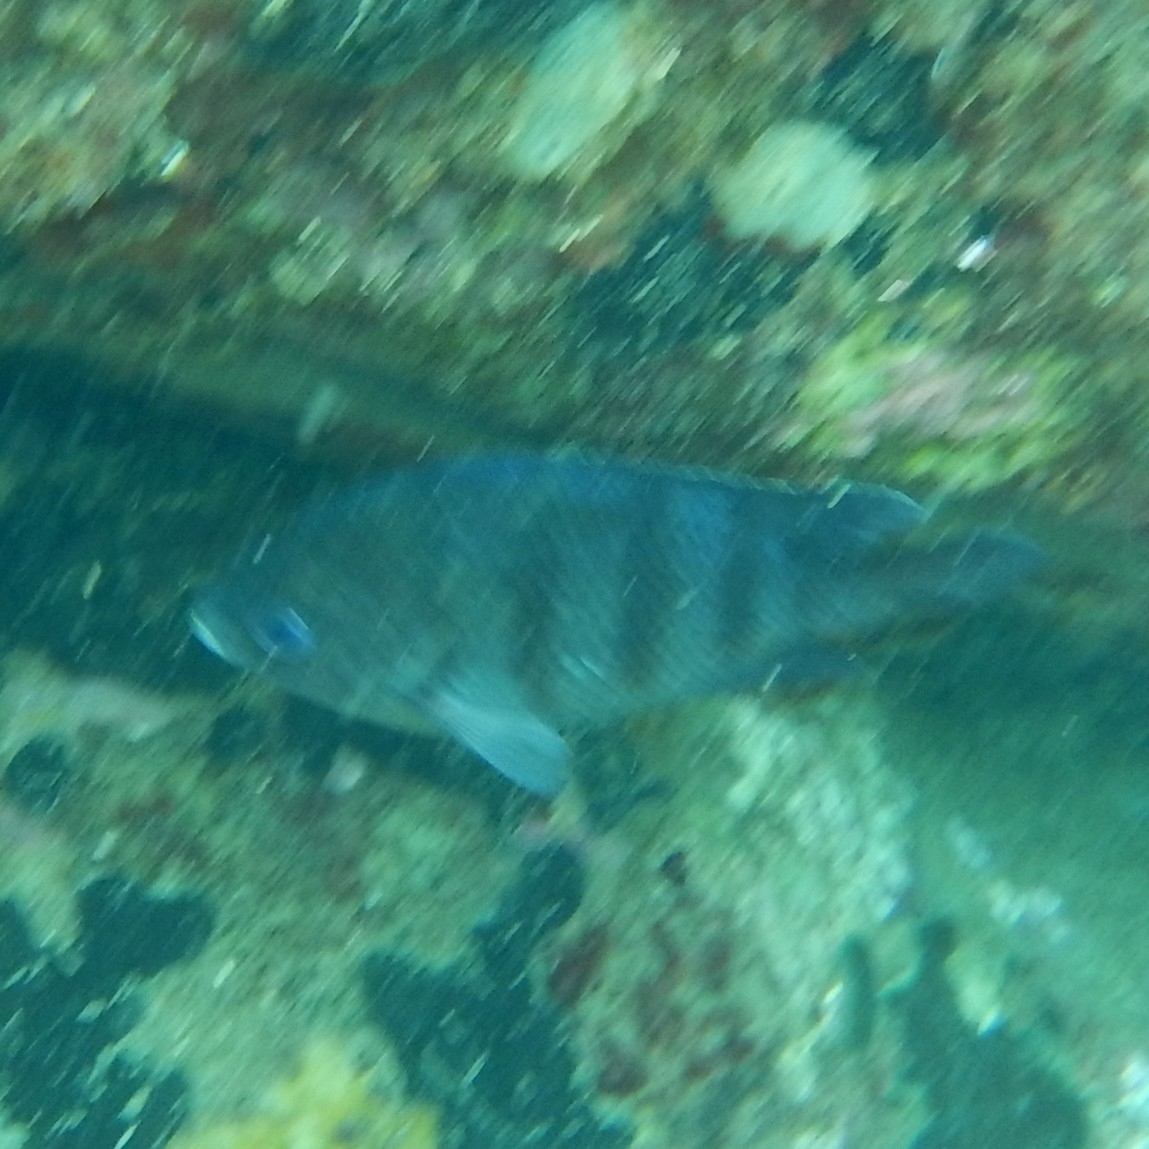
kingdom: Animalia
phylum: Chordata
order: Perciformes
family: Pomacentridae
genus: Abudefduf
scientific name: Abudefduf saxatilis
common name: Sergeant major
